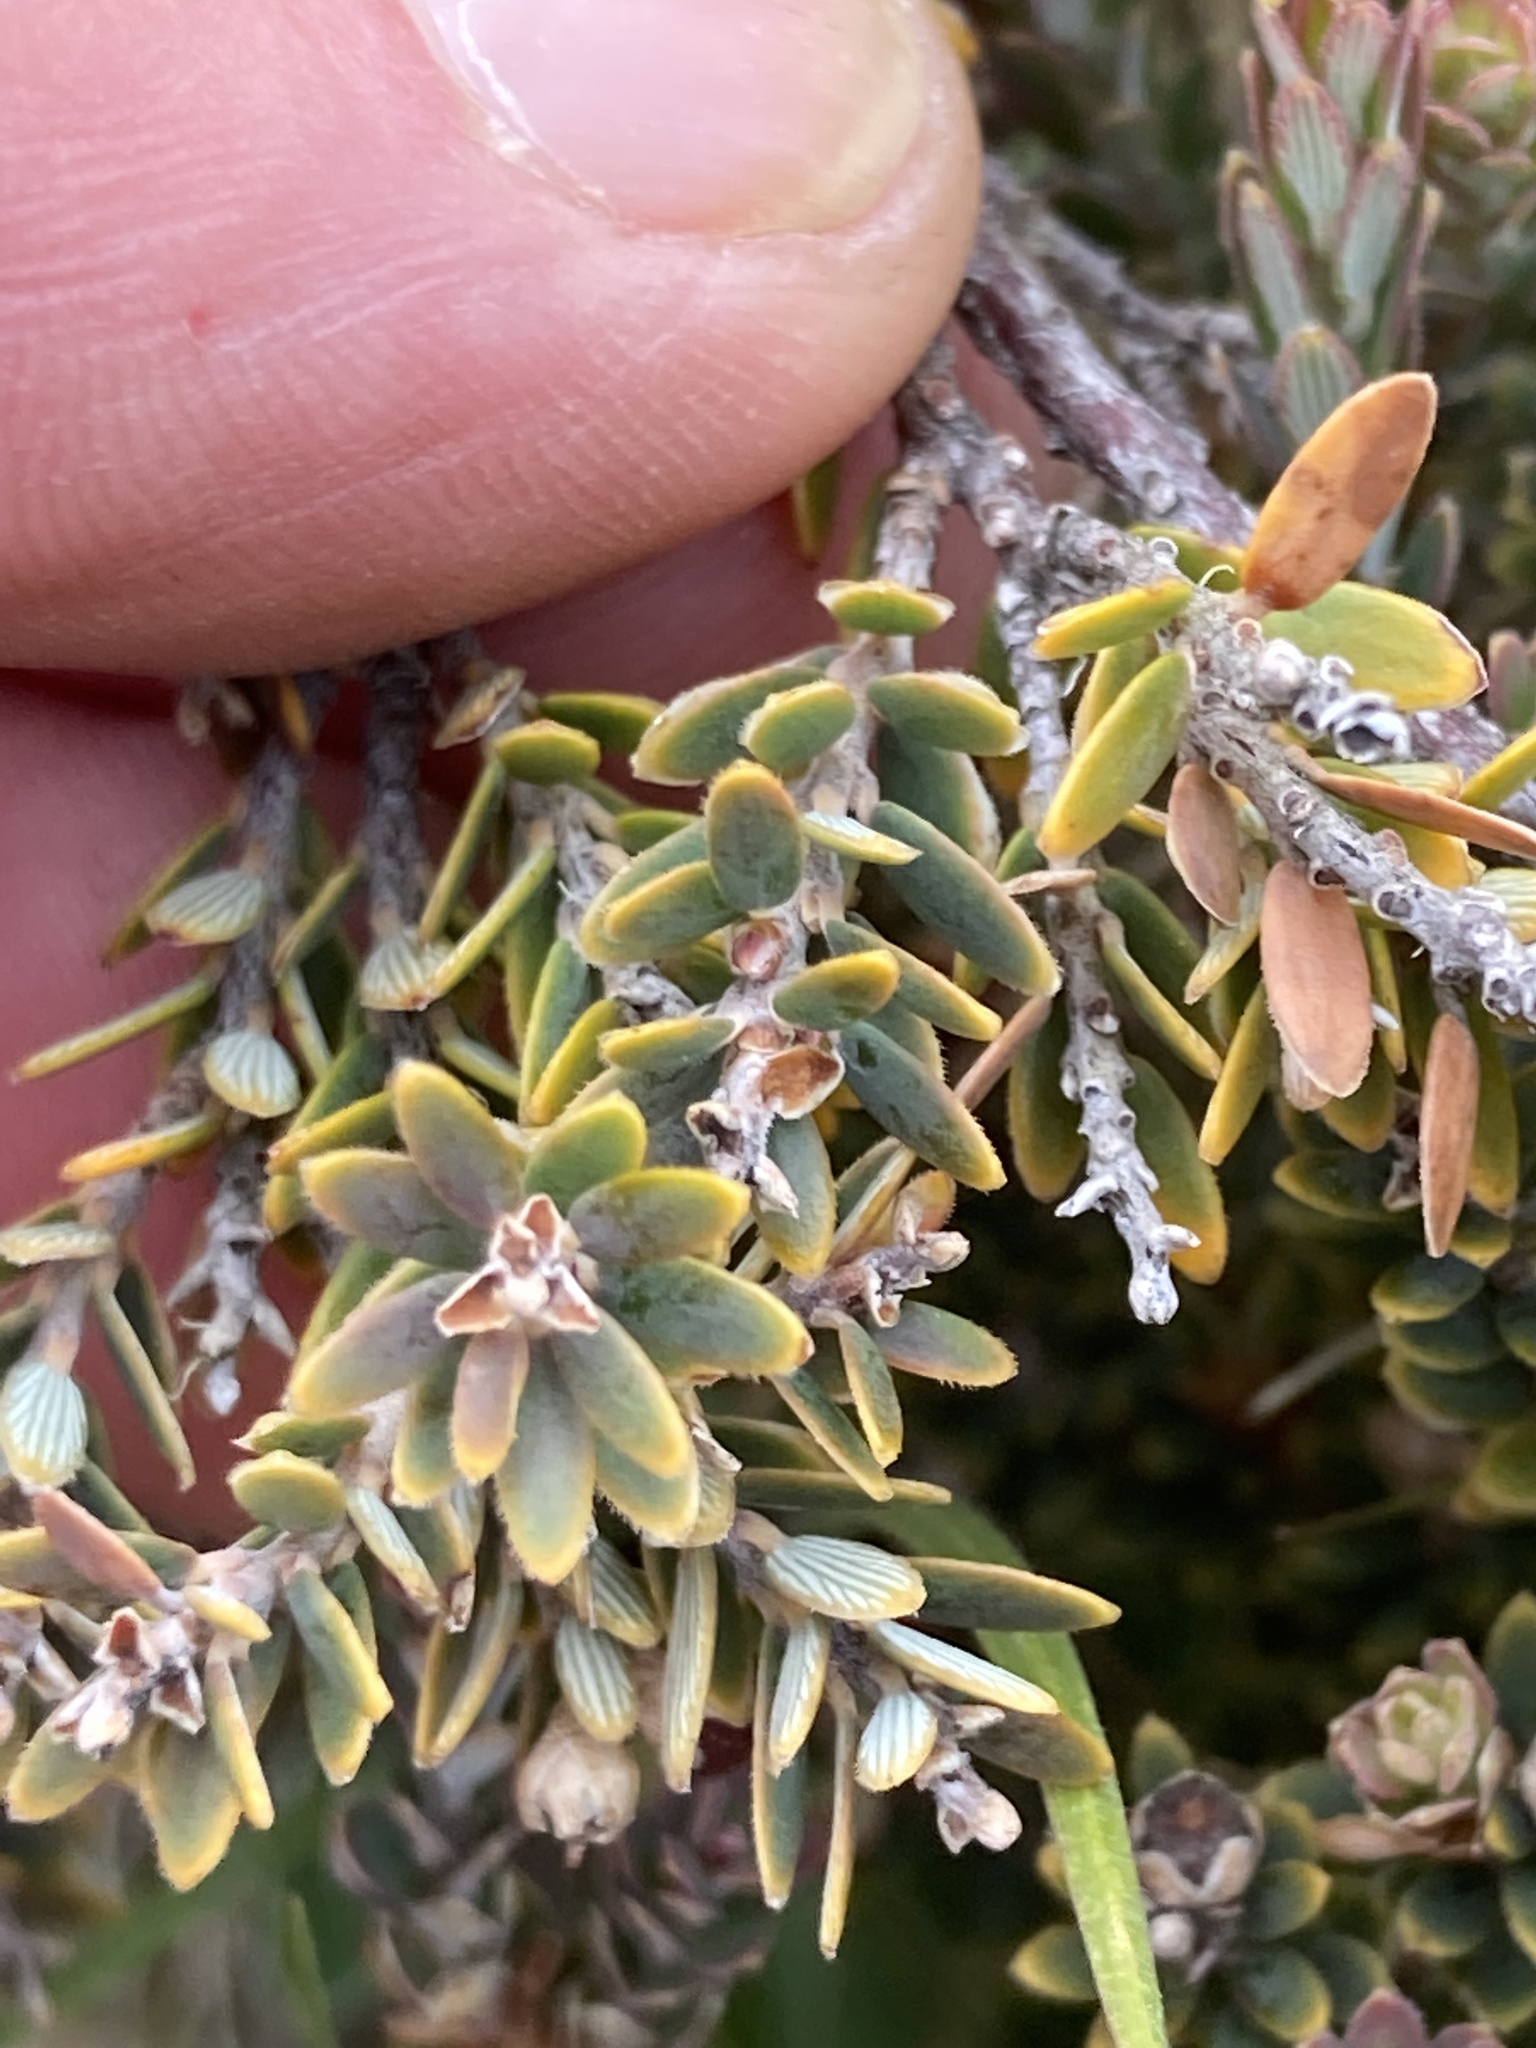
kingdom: Plantae
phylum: Tracheophyta
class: Magnoliopsida
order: Ericales
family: Ericaceae
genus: Acrothamnus
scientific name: Acrothamnus colensoi
